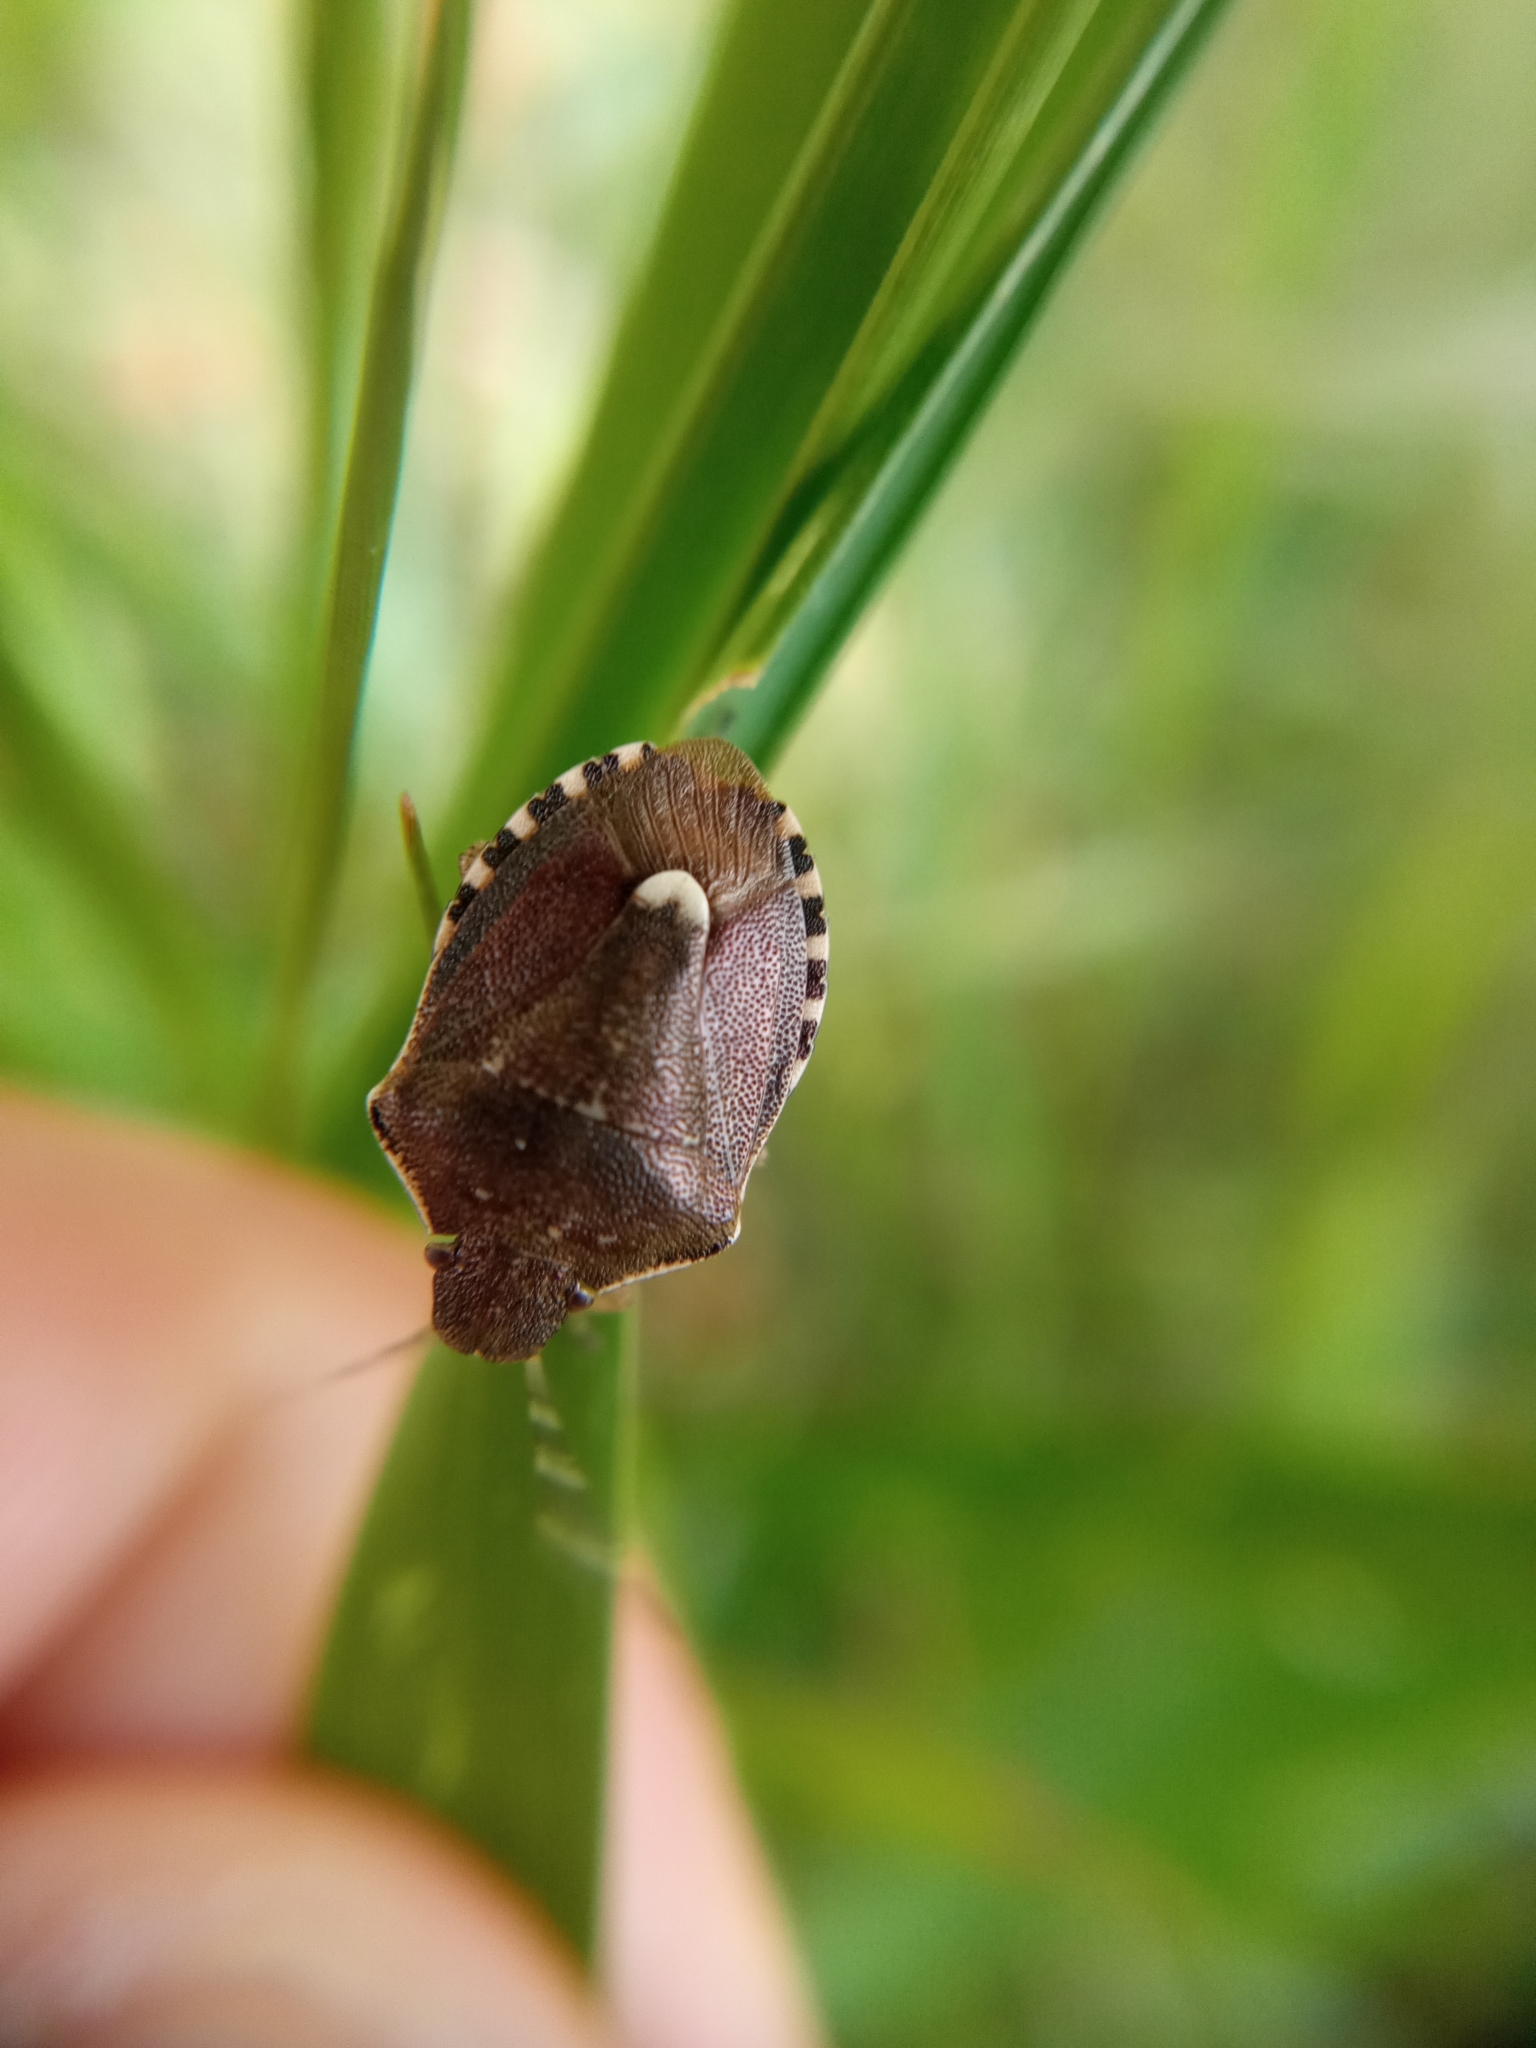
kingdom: Animalia
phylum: Arthropoda
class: Insecta
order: Hemiptera
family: Pentatomidae
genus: Holcostethus
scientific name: Holcostethus sphacelatus
